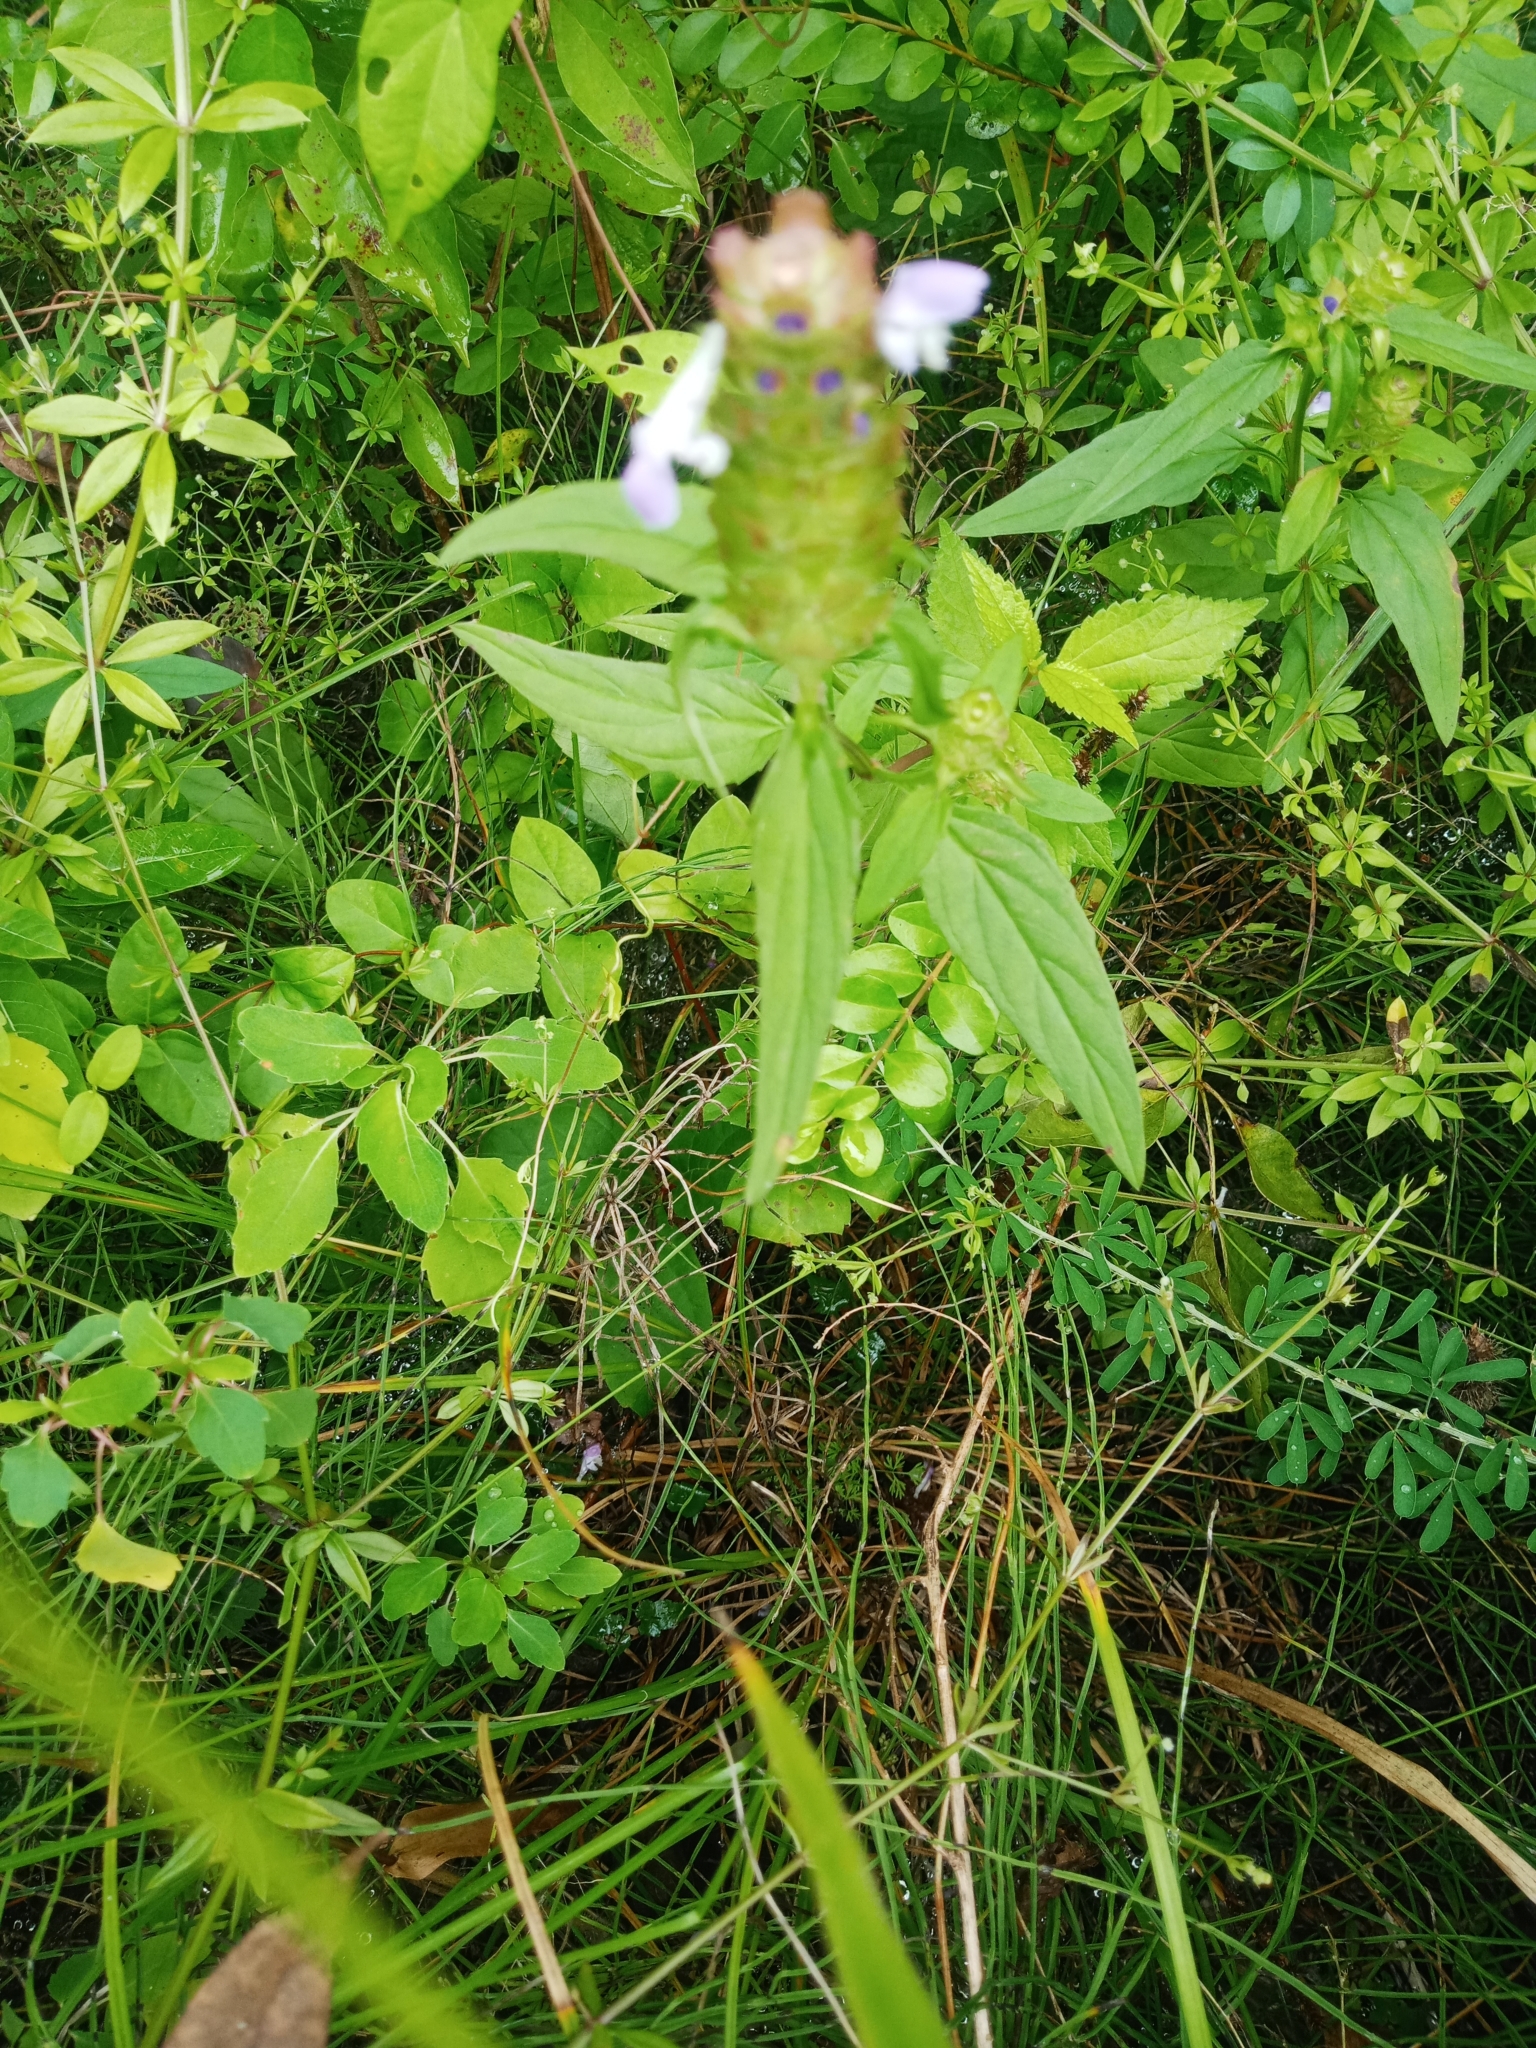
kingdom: Plantae
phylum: Tracheophyta
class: Magnoliopsida
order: Lamiales
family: Lamiaceae
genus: Prunella
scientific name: Prunella vulgaris
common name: Heal-all
